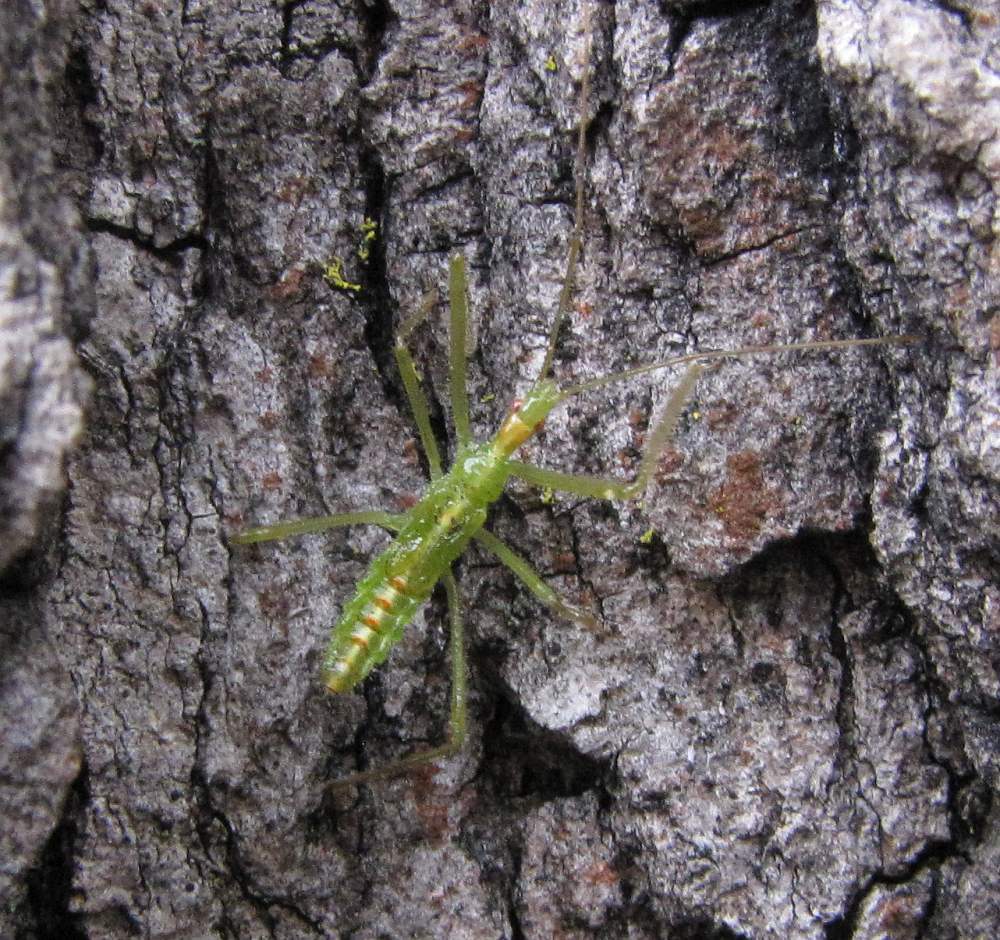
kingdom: Animalia
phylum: Arthropoda
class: Insecta
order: Hemiptera
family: Reduviidae
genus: Zelus
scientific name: Zelus luridus
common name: Pale green assassin bug
